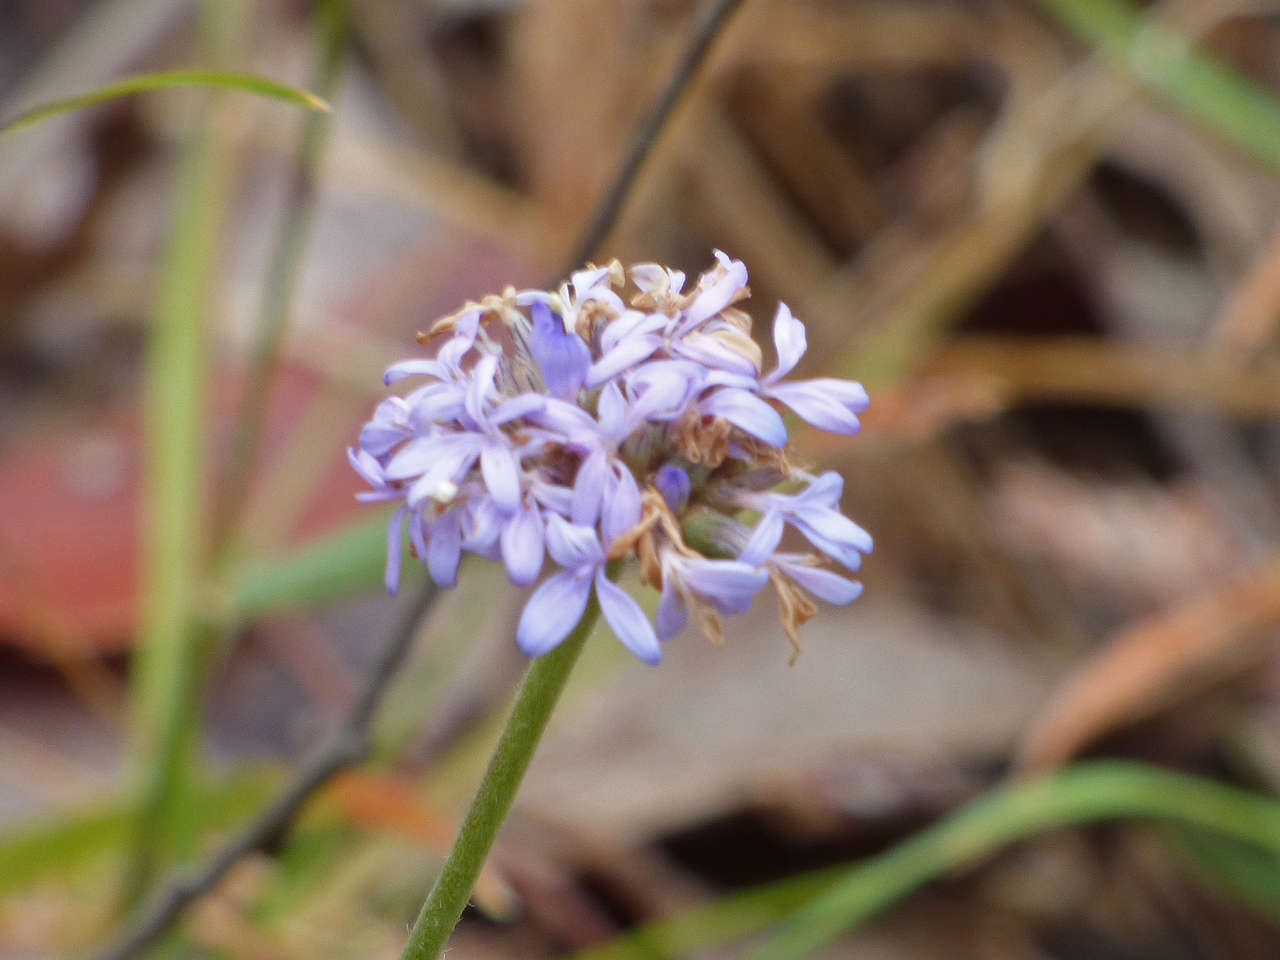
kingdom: Plantae
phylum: Tracheophyta
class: Magnoliopsida
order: Asterales
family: Goodeniaceae
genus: Brunonia
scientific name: Brunonia australis
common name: Blue pincushion
